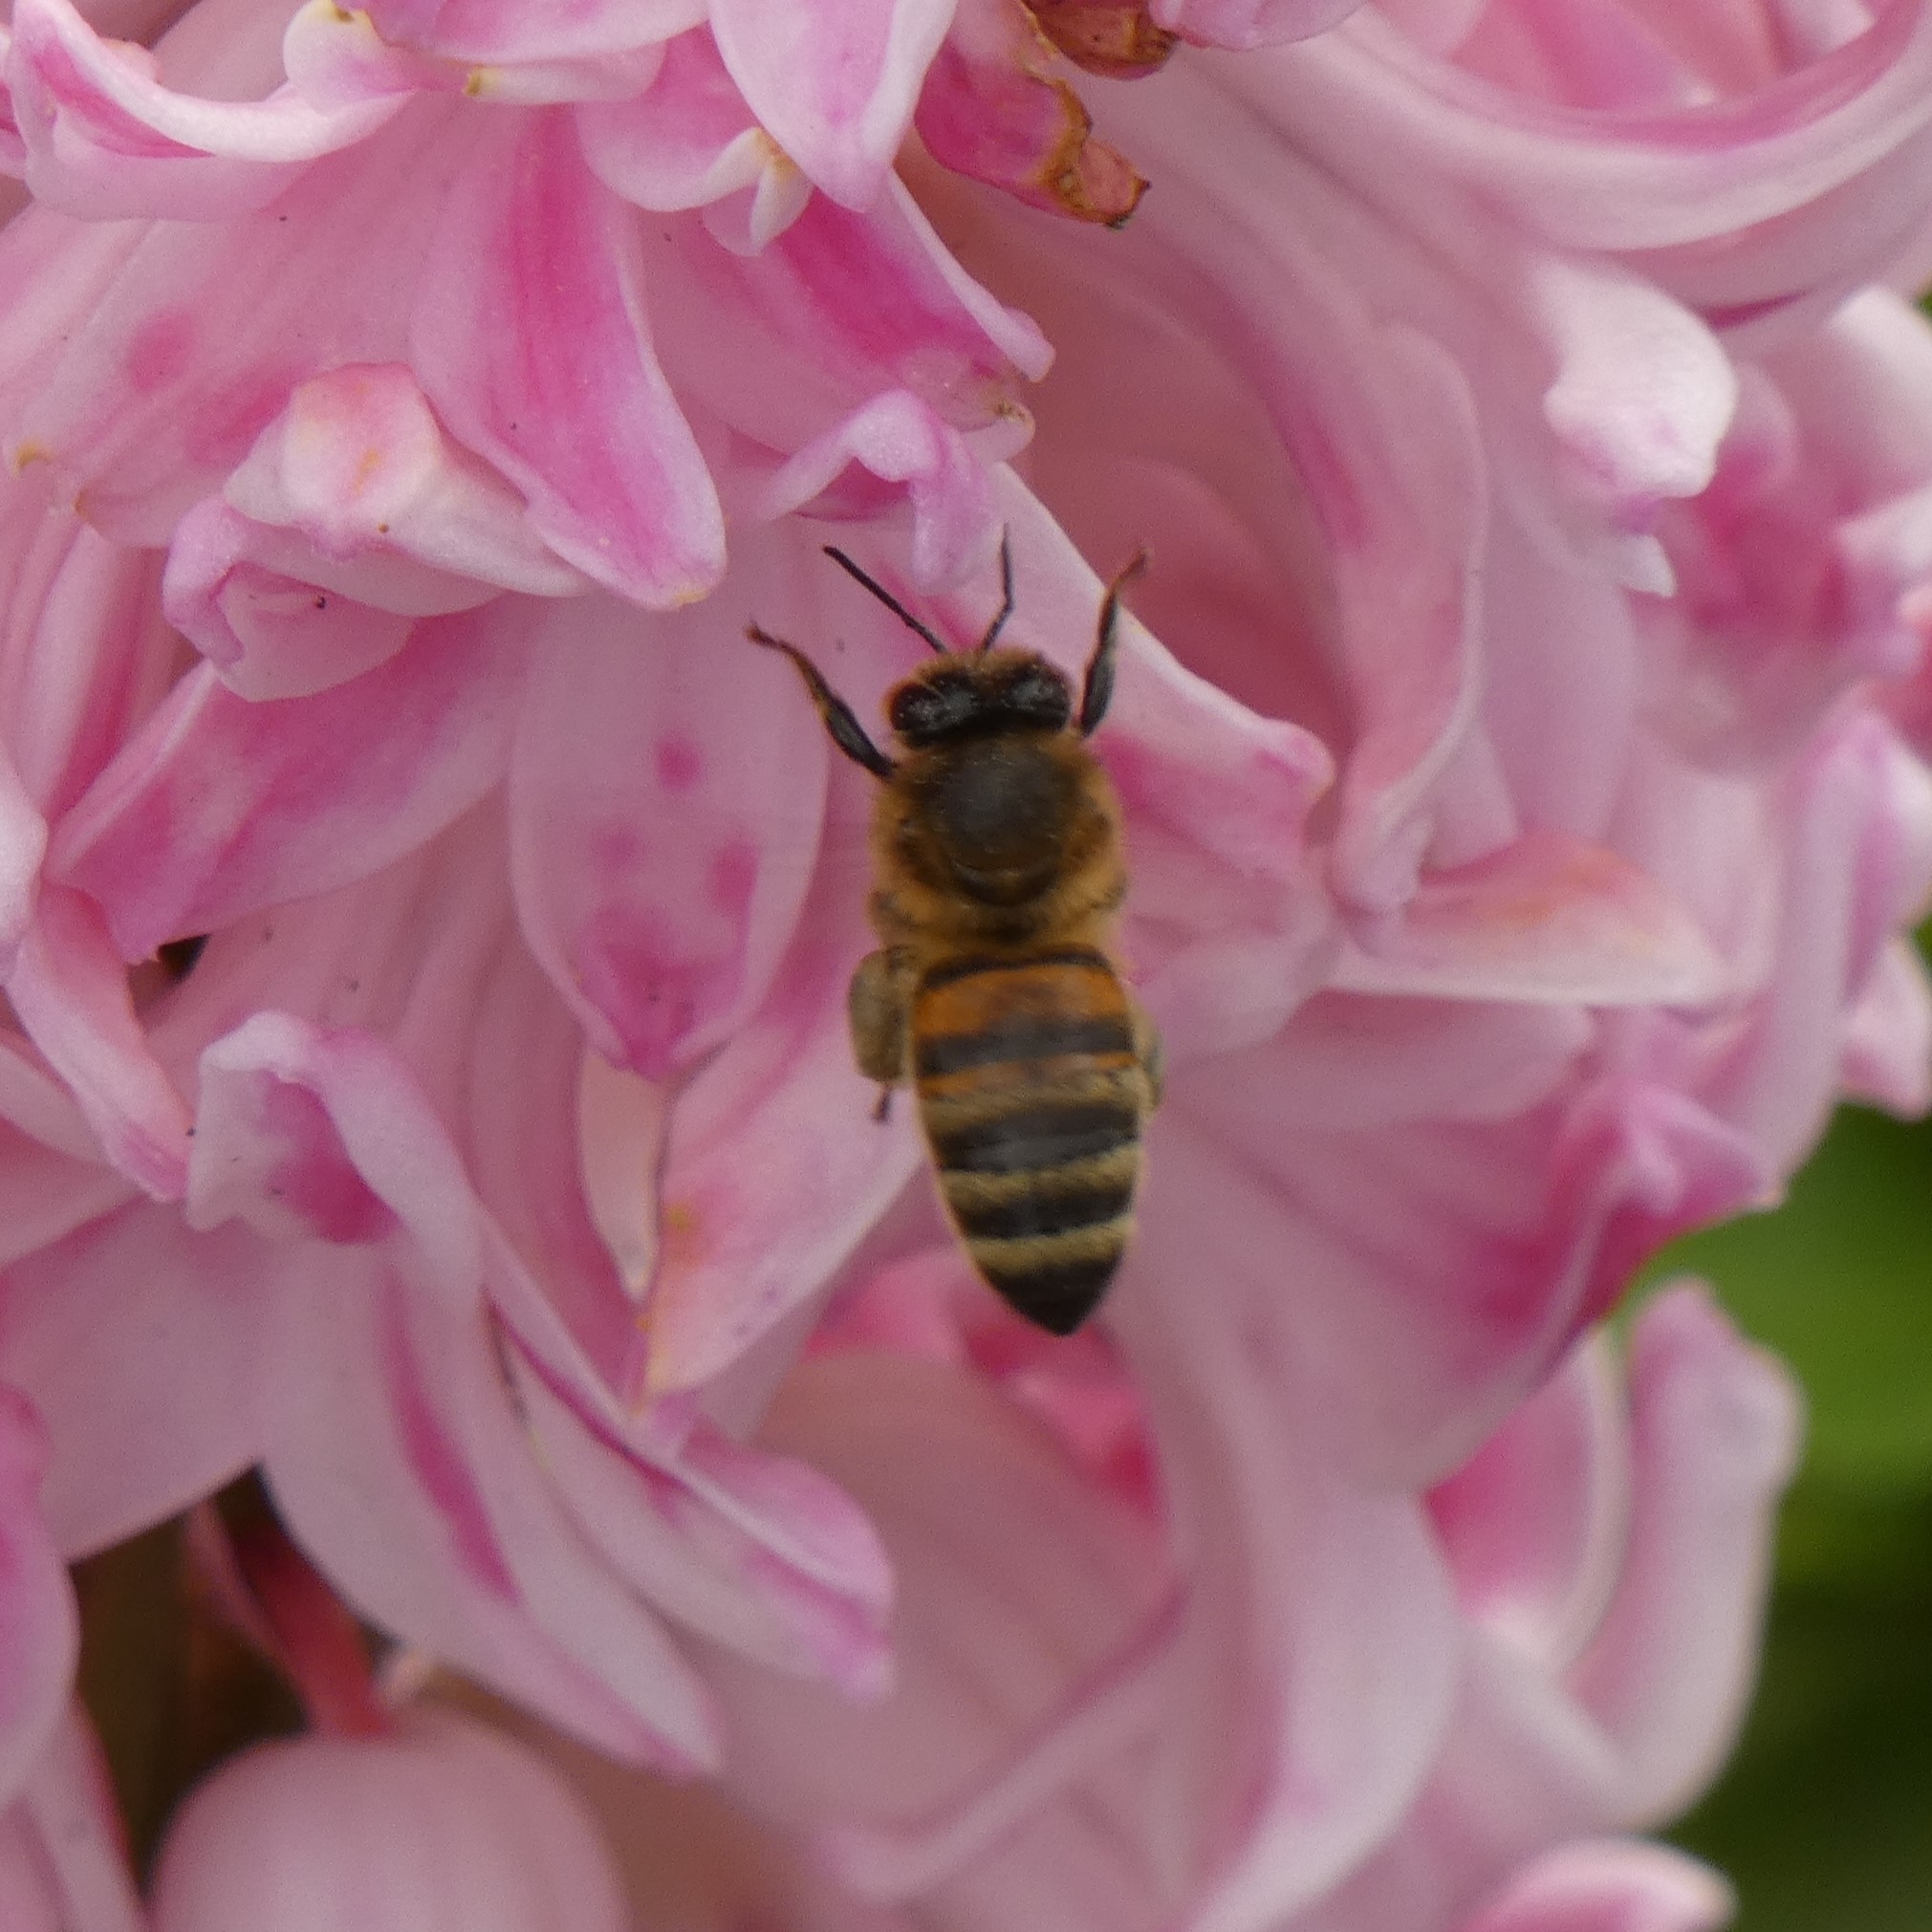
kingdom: Animalia
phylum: Arthropoda
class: Insecta
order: Hymenoptera
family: Apidae
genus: Apis
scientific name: Apis mellifera
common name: Honey bee
